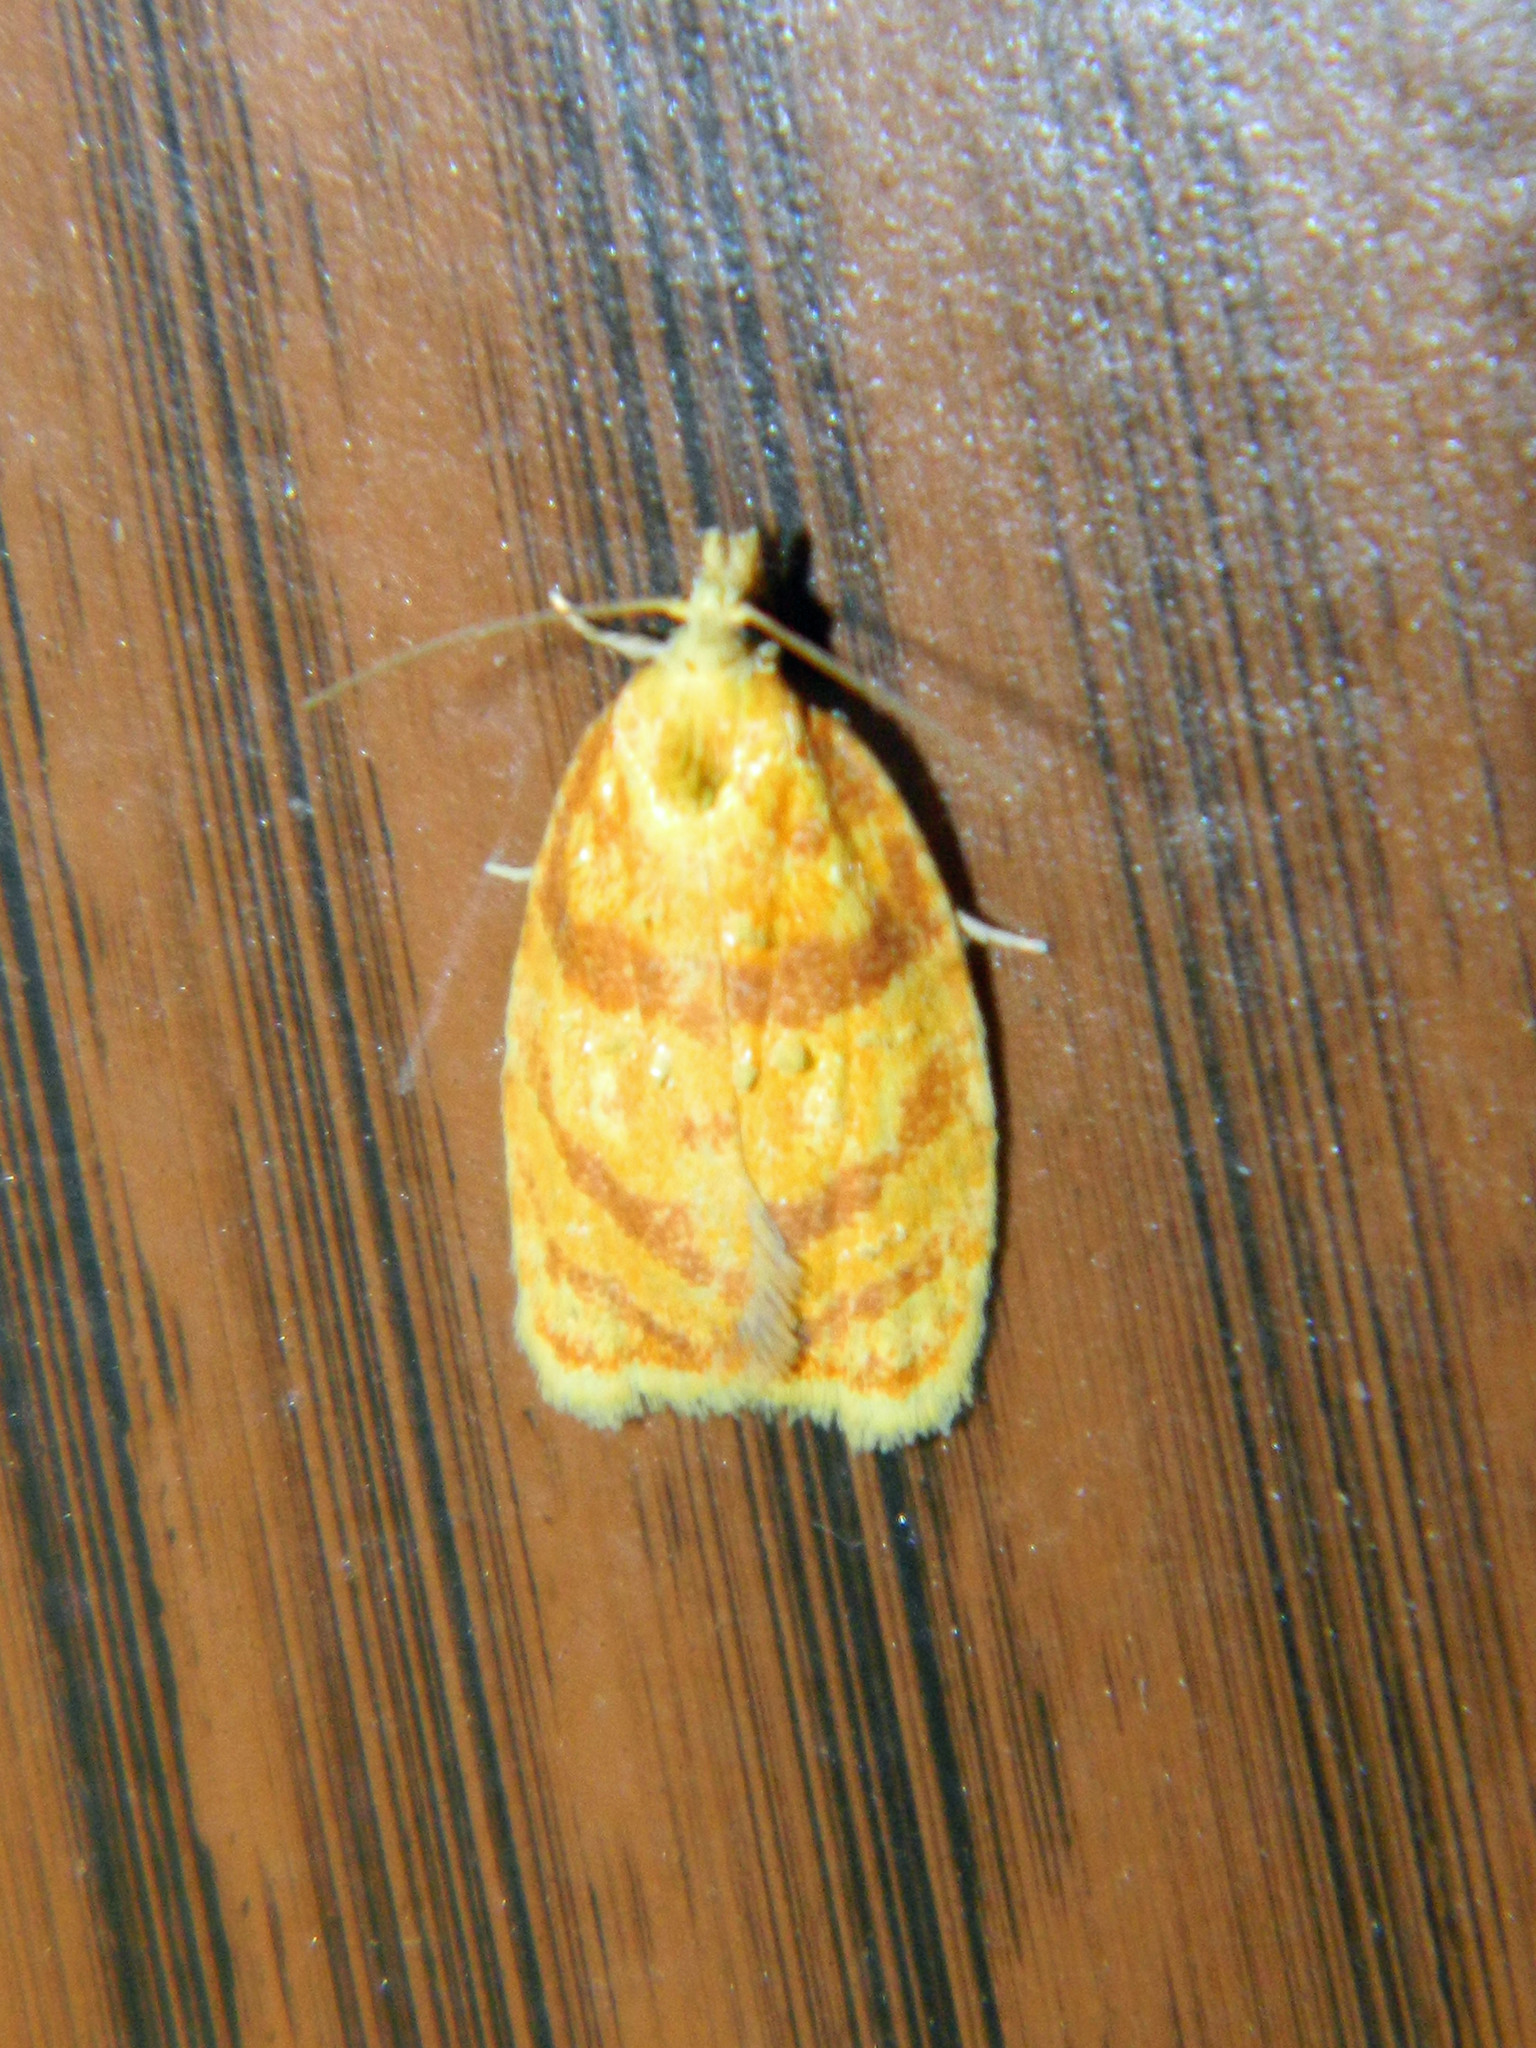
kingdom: Animalia
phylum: Arthropoda
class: Insecta
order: Lepidoptera
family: Tortricidae
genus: Acleris
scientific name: Acleris albicomana
